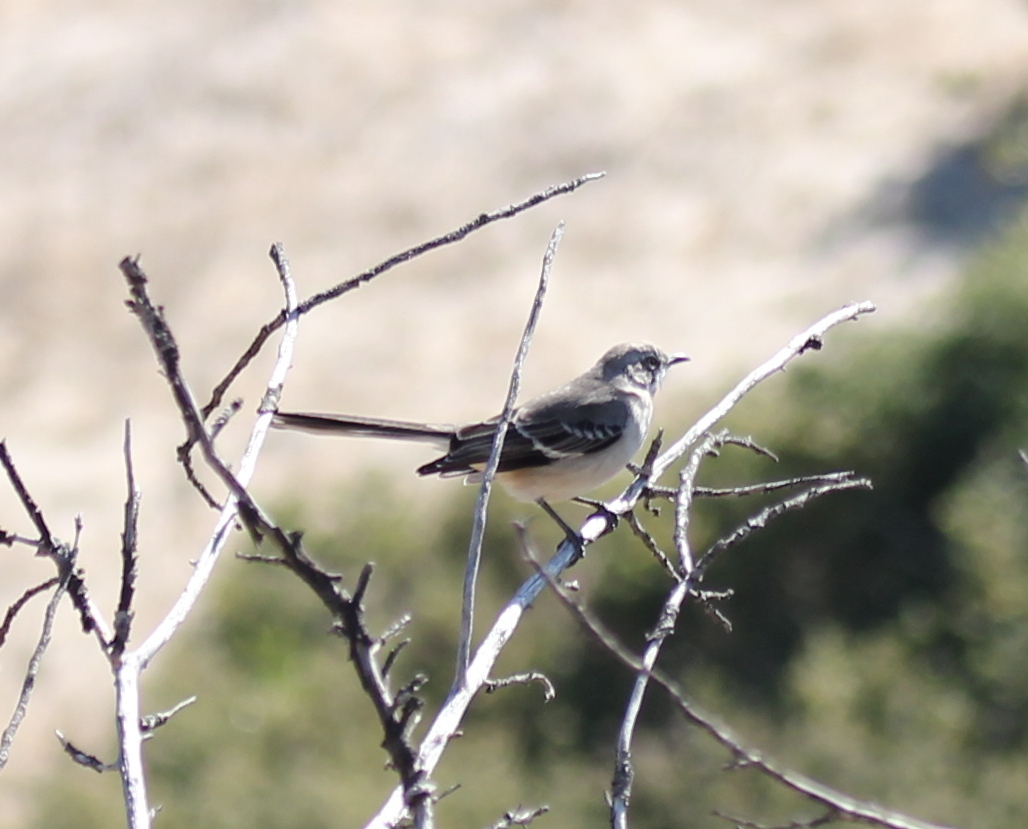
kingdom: Animalia
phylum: Chordata
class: Aves
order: Passeriformes
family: Mimidae
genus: Mimus
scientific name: Mimus polyglottos
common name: Northern mockingbird
